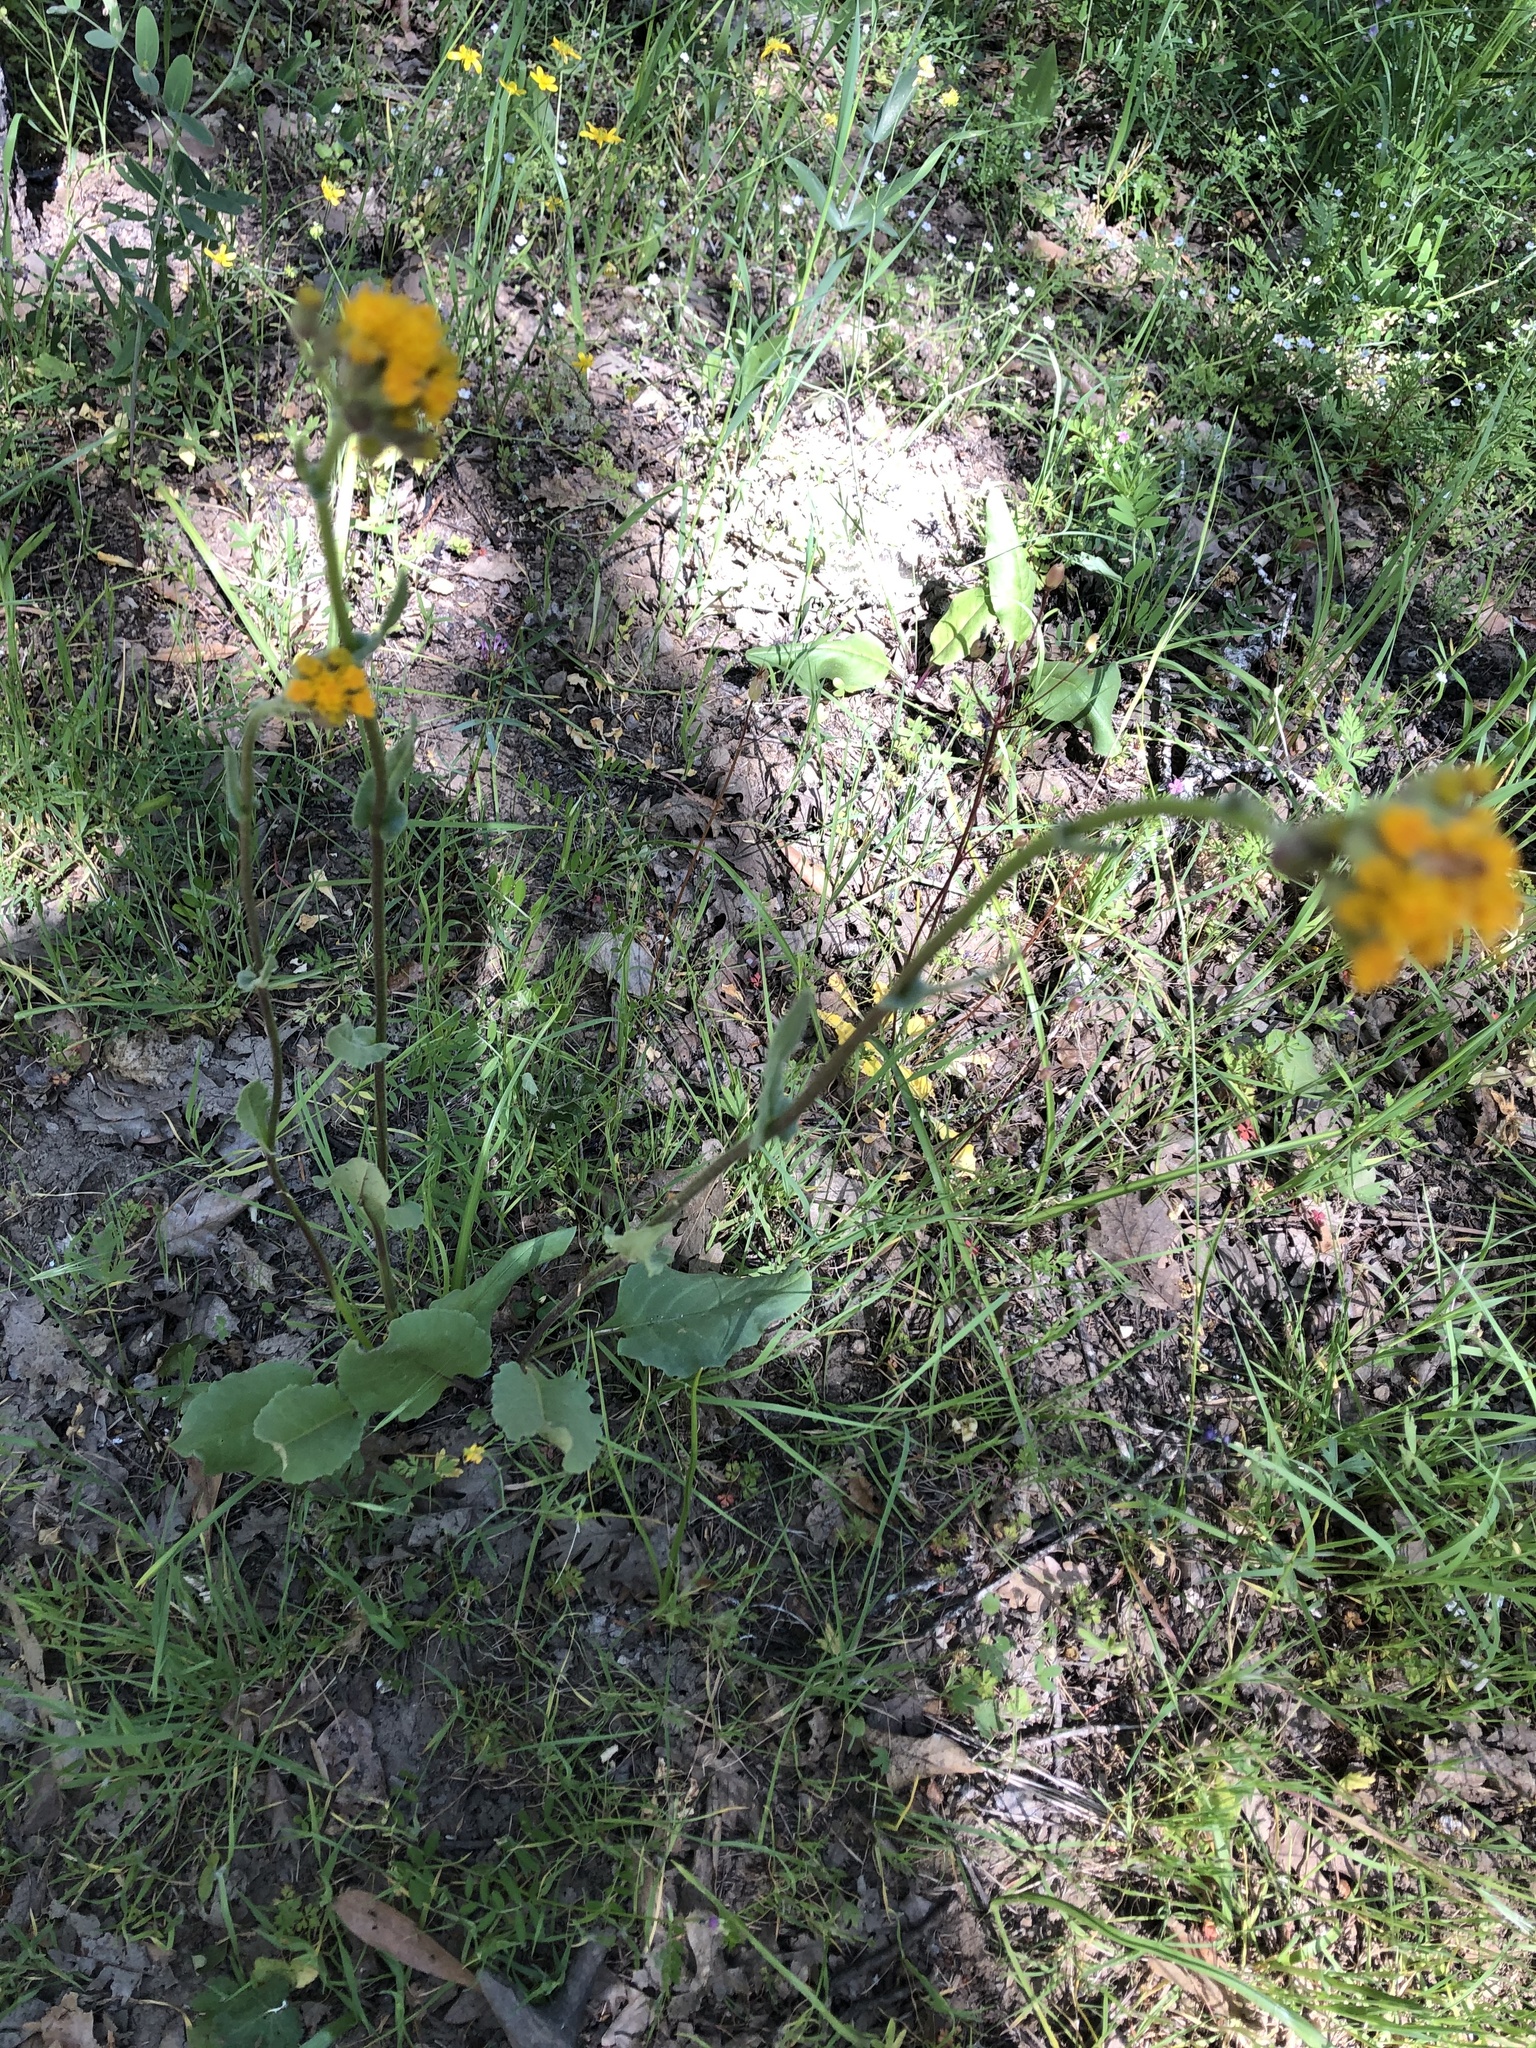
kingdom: Plantae
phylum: Tracheophyta
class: Magnoliopsida
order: Asterales
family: Asteraceae
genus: Senecio
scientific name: Senecio aronicoides
